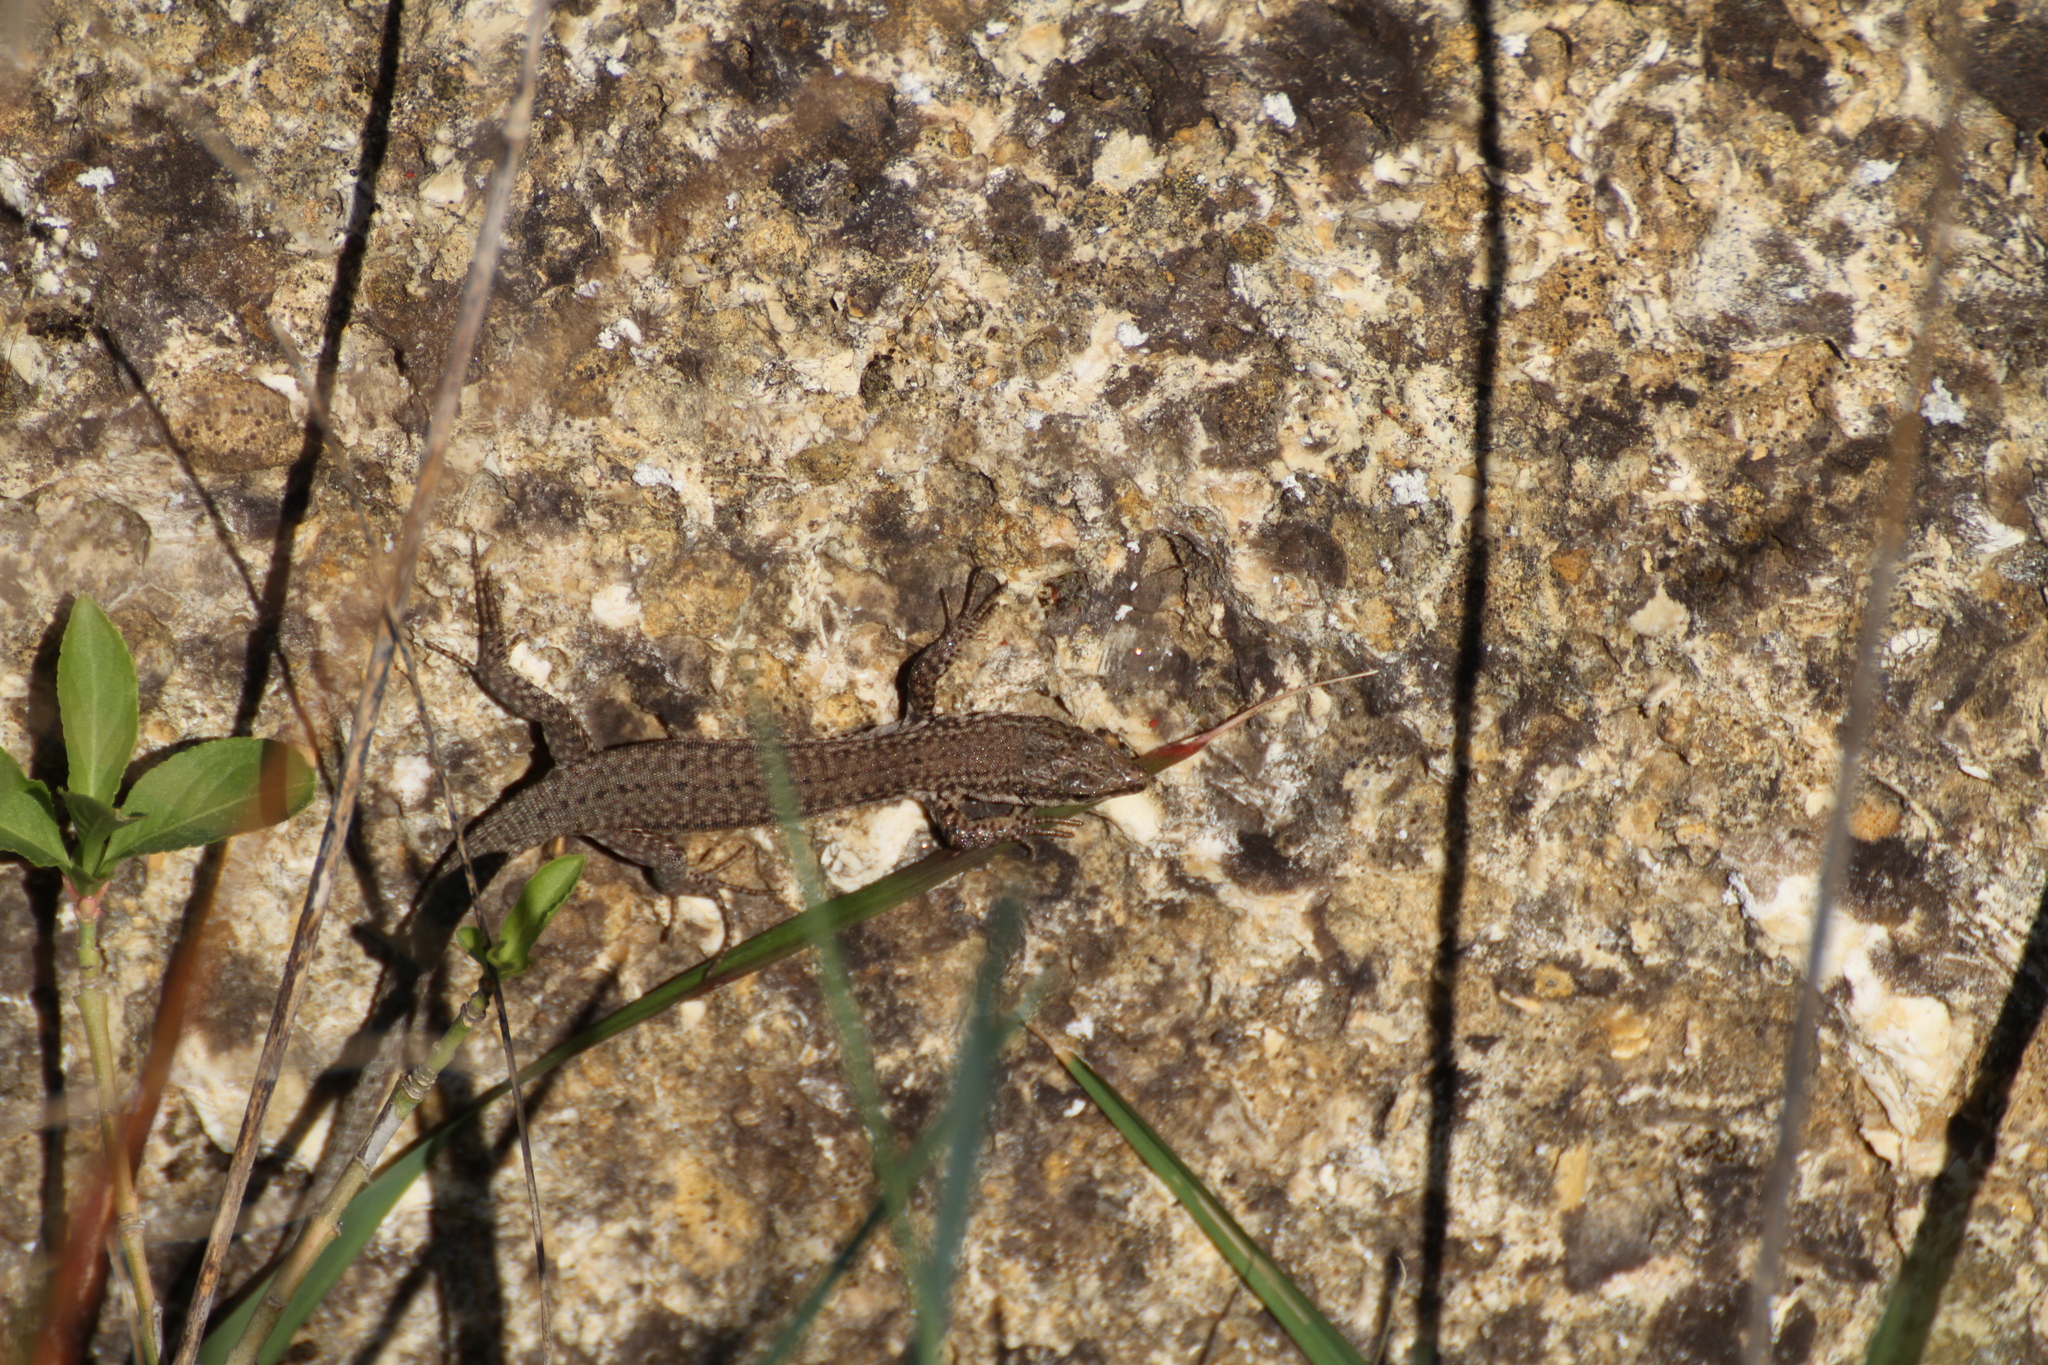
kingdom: Animalia
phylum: Chordata
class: Squamata
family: Lacertidae
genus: Podarcis
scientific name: Podarcis liolepis
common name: Catalonian wall lizard
